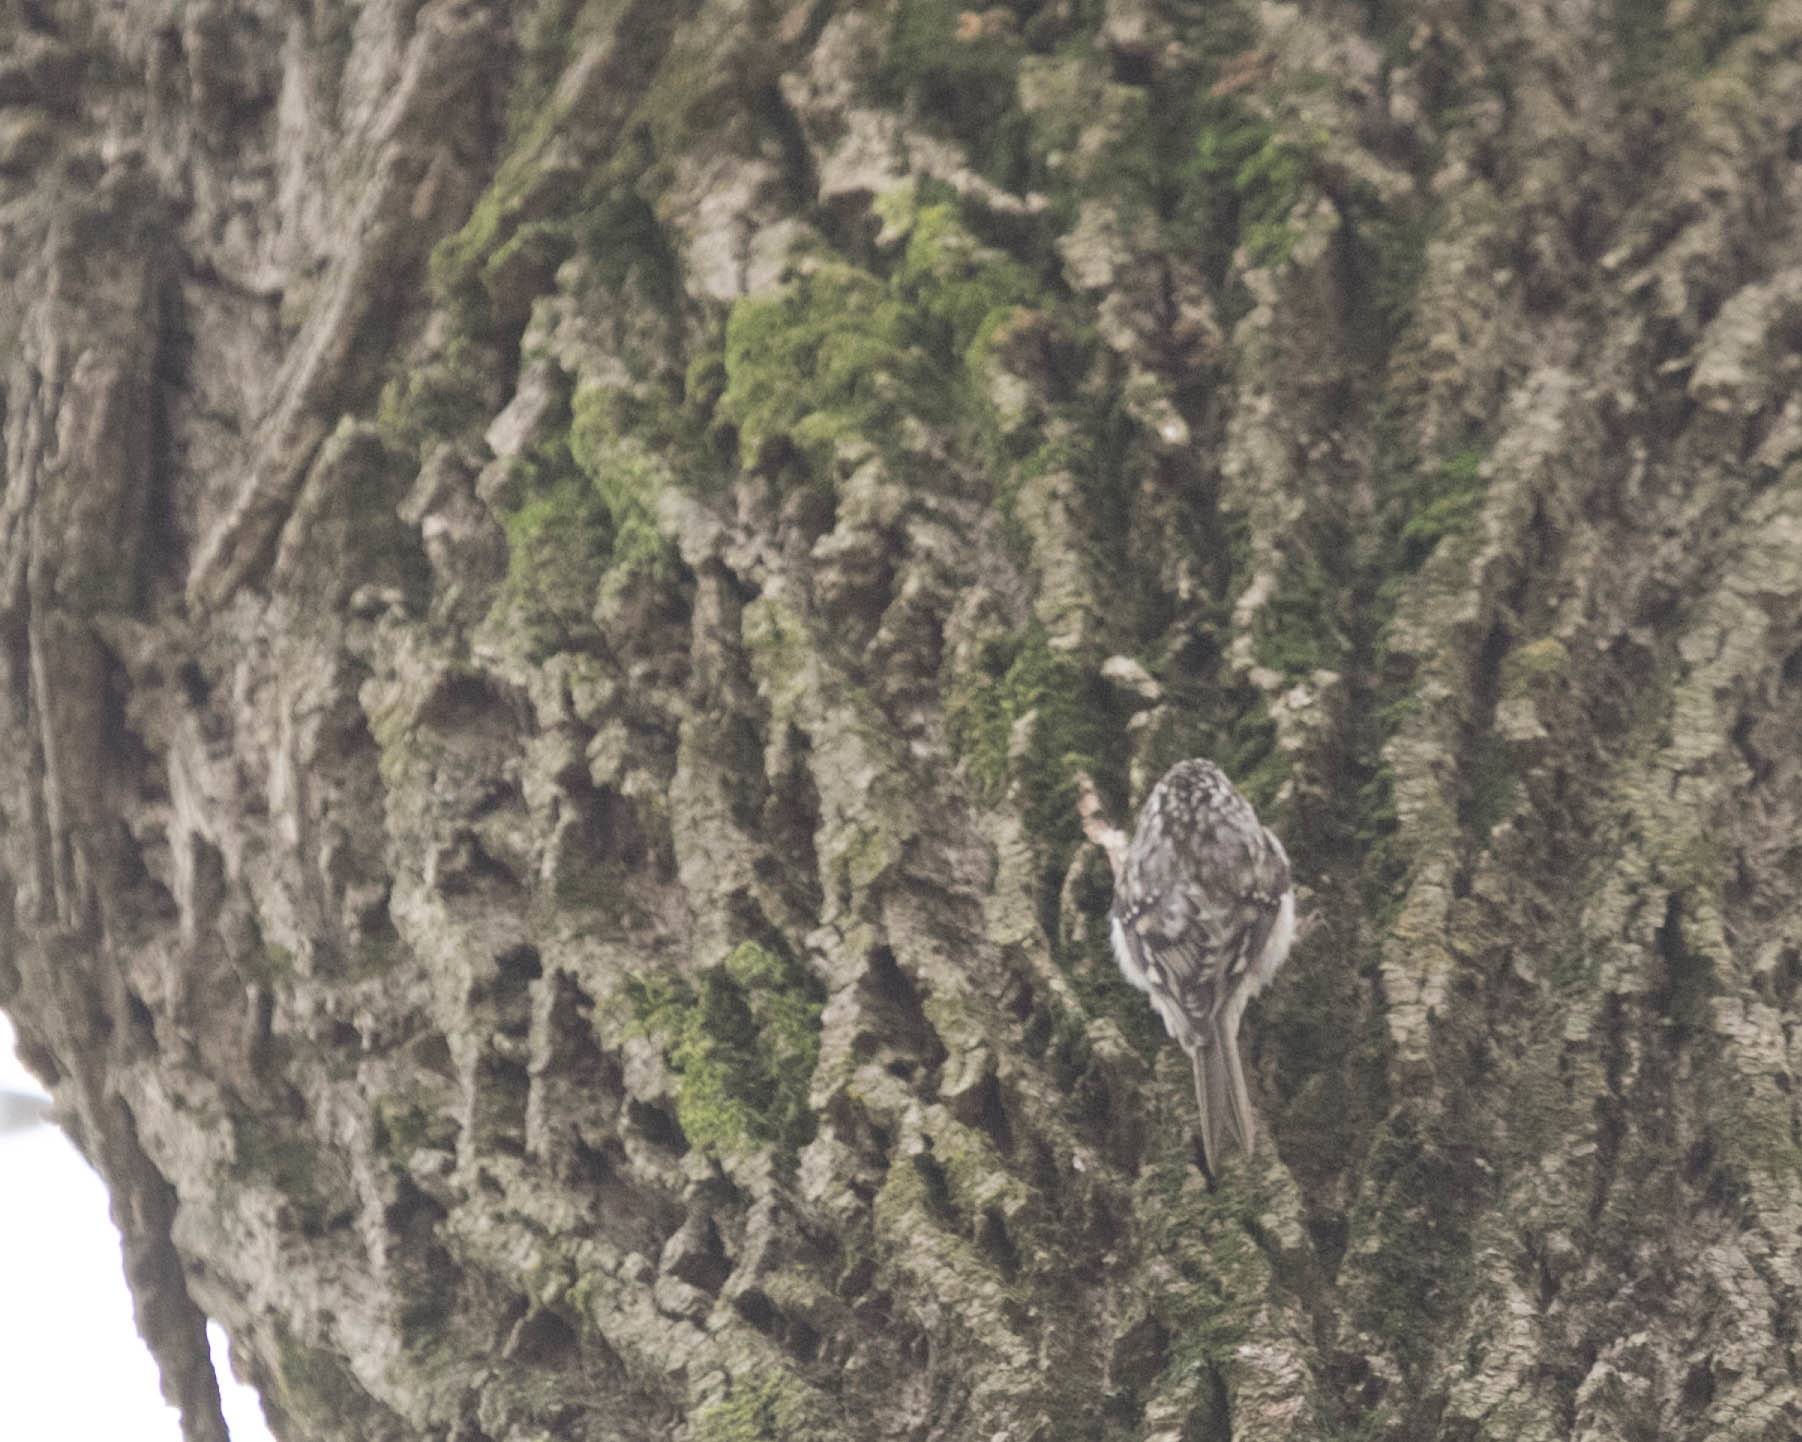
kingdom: Animalia
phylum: Chordata
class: Aves
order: Passeriformes
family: Certhiidae
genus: Certhia
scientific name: Certhia americana
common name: Brown creeper
